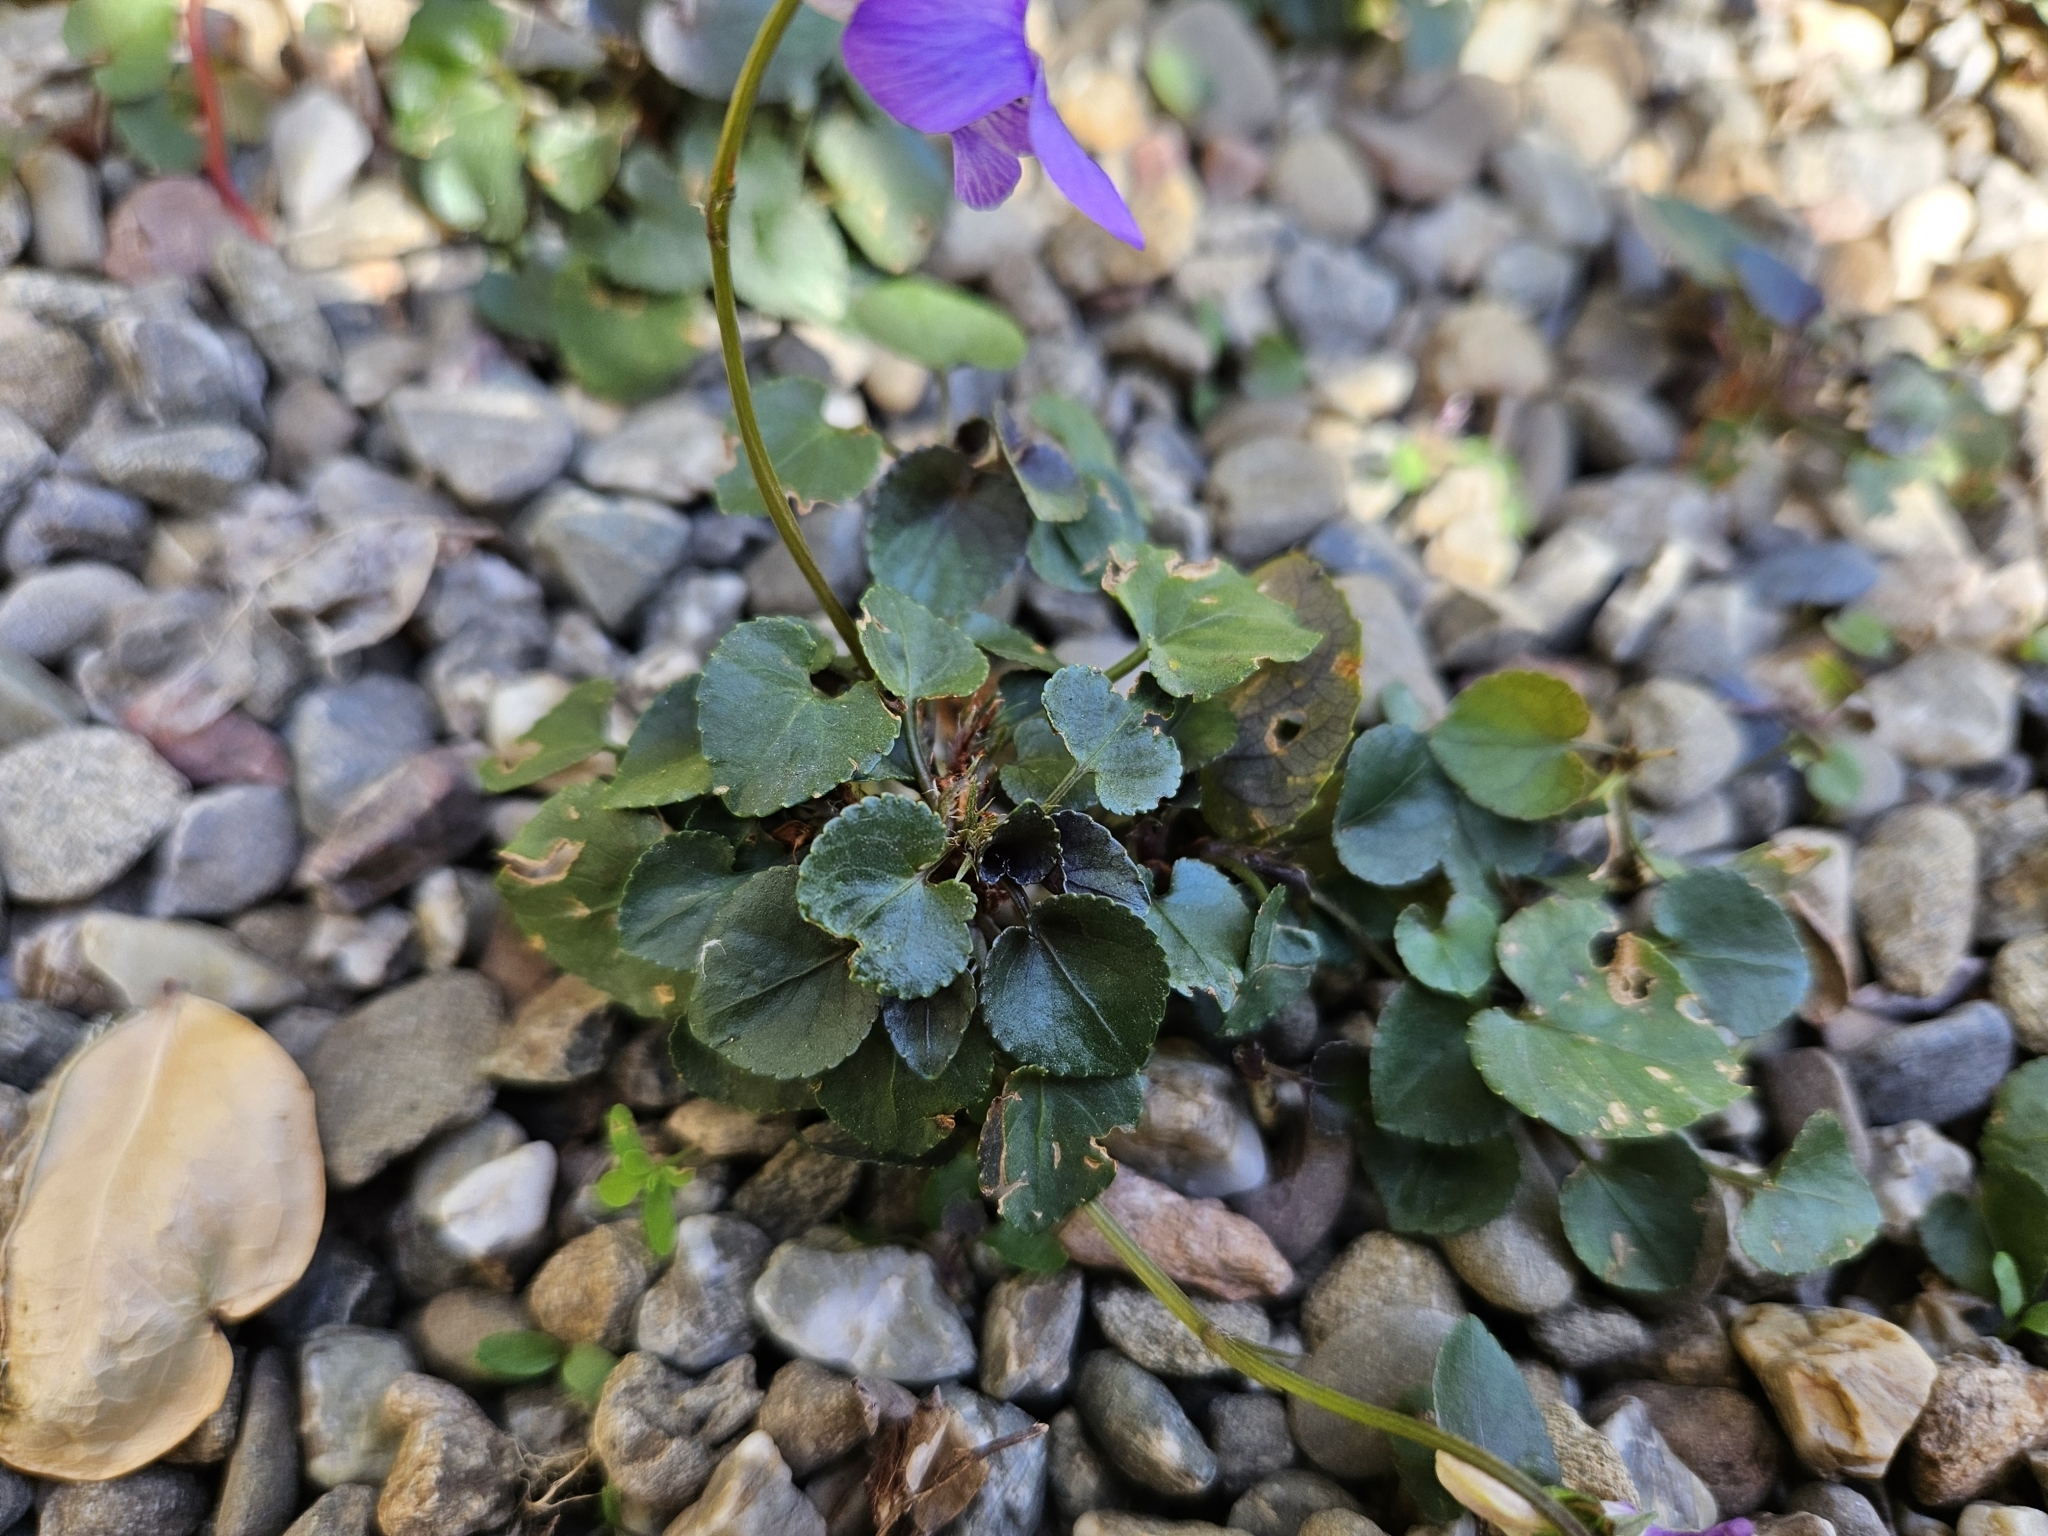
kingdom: Plantae
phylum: Tracheophyta
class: Magnoliopsida
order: Malpighiales
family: Violaceae
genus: Viola
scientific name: Viola riviniana
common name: Common dog-violet
